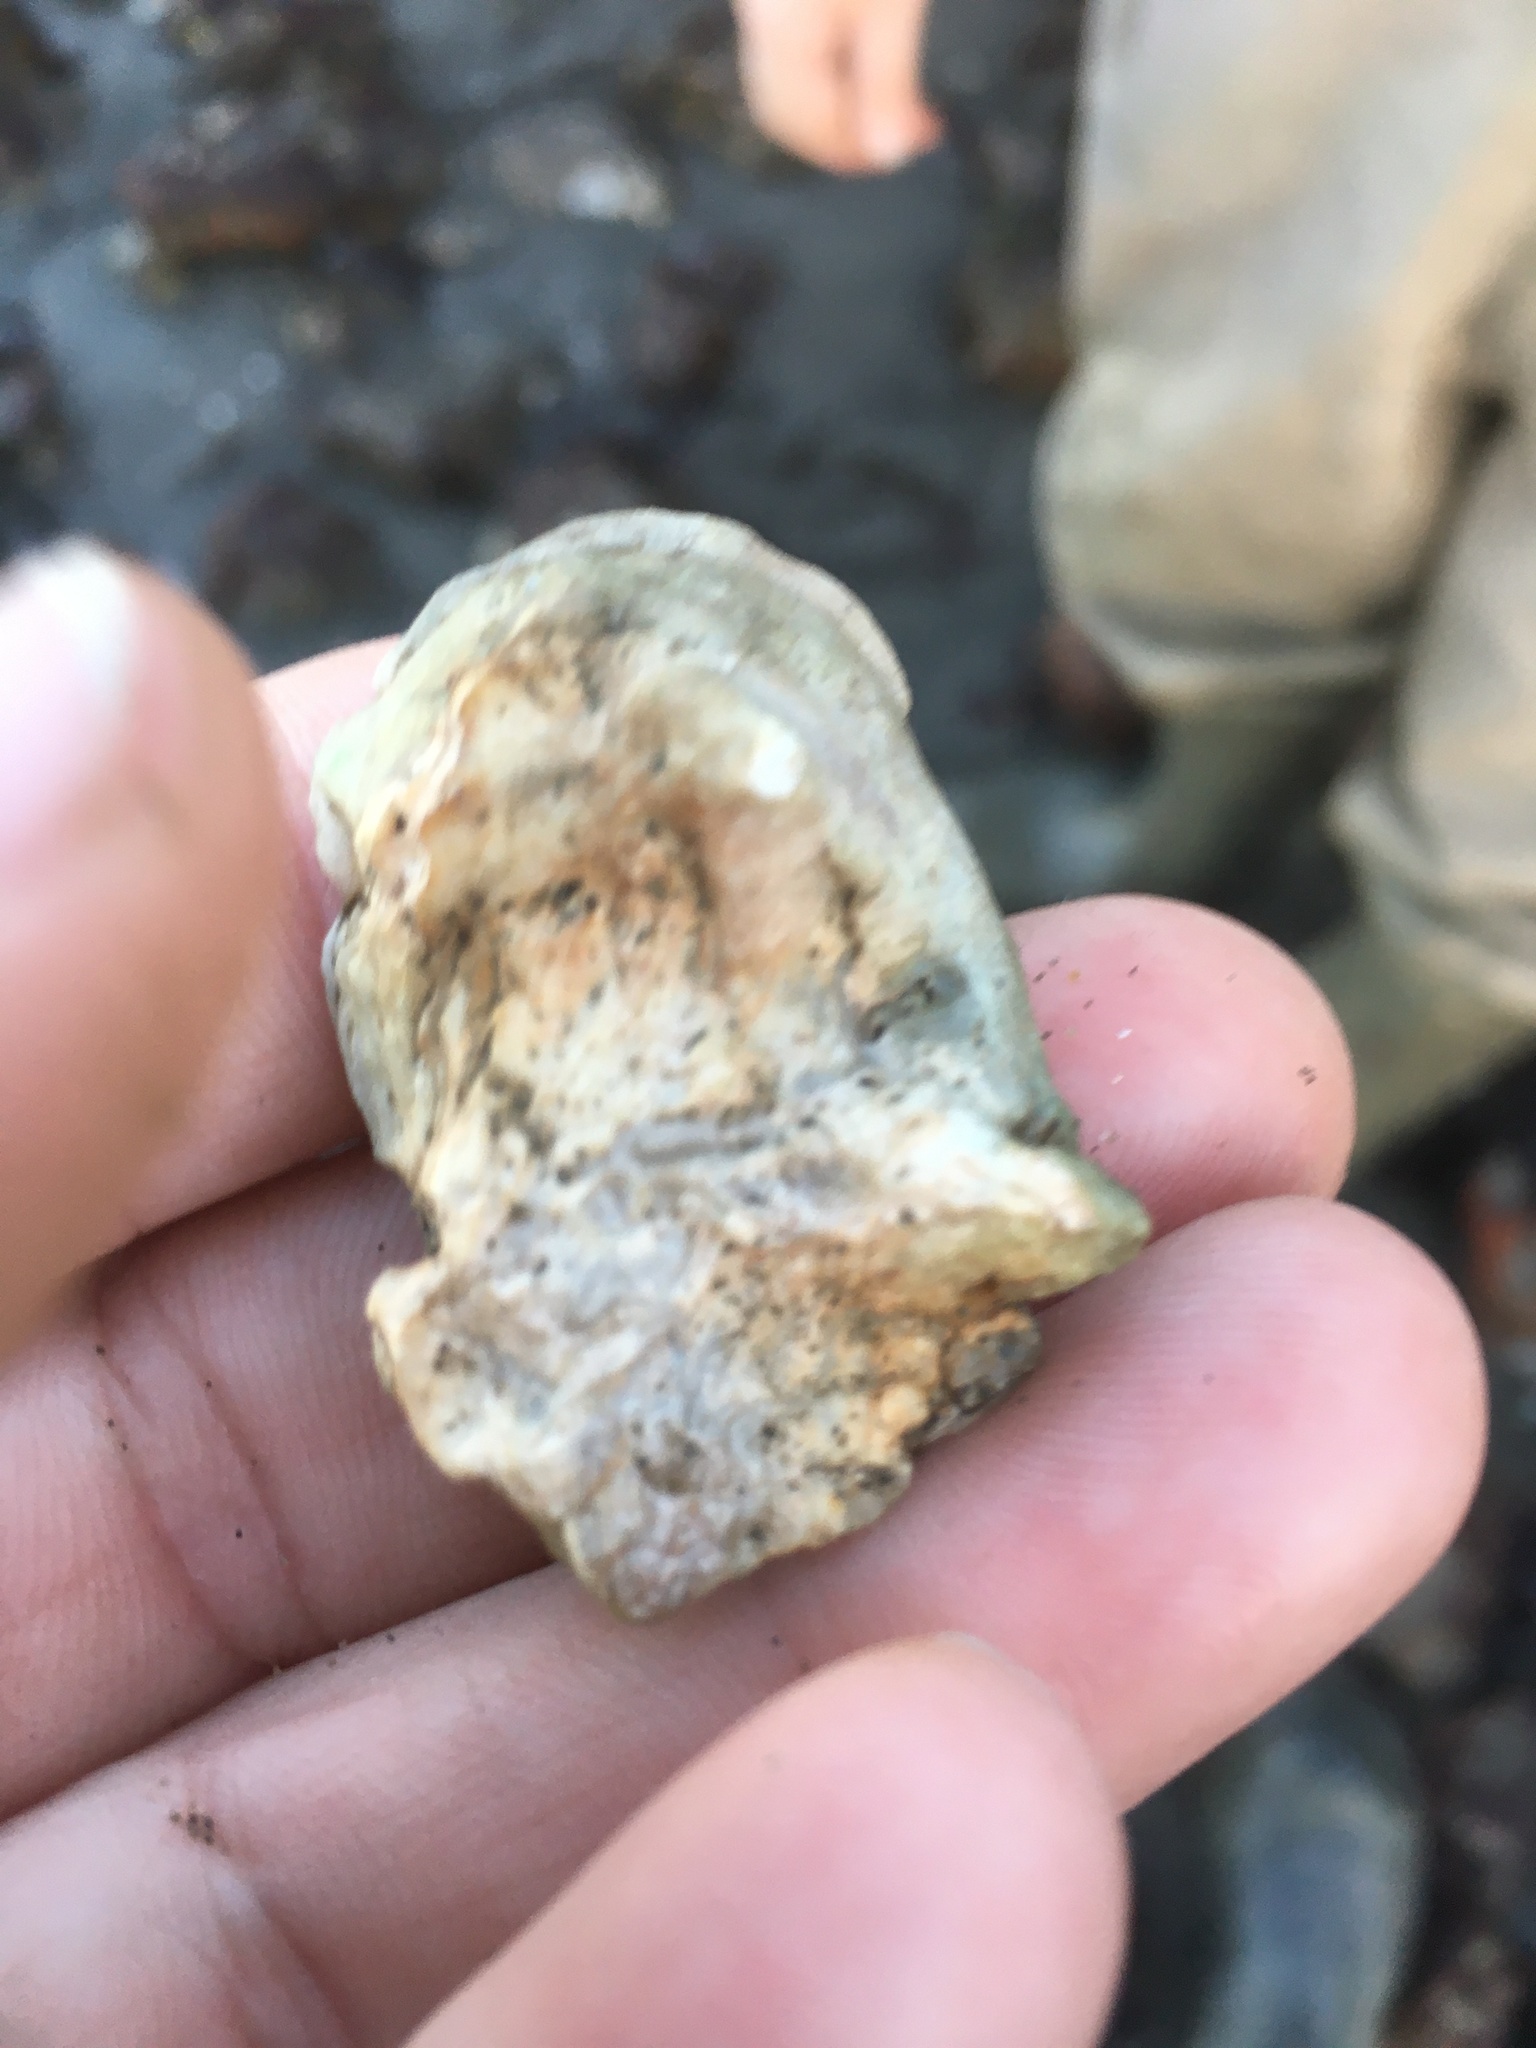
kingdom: Animalia
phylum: Mollusca
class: Bivalvia
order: Ostreida
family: Ostreidae
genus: Ostrea
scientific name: Ostrea lurida
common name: Olympia flat oyster
